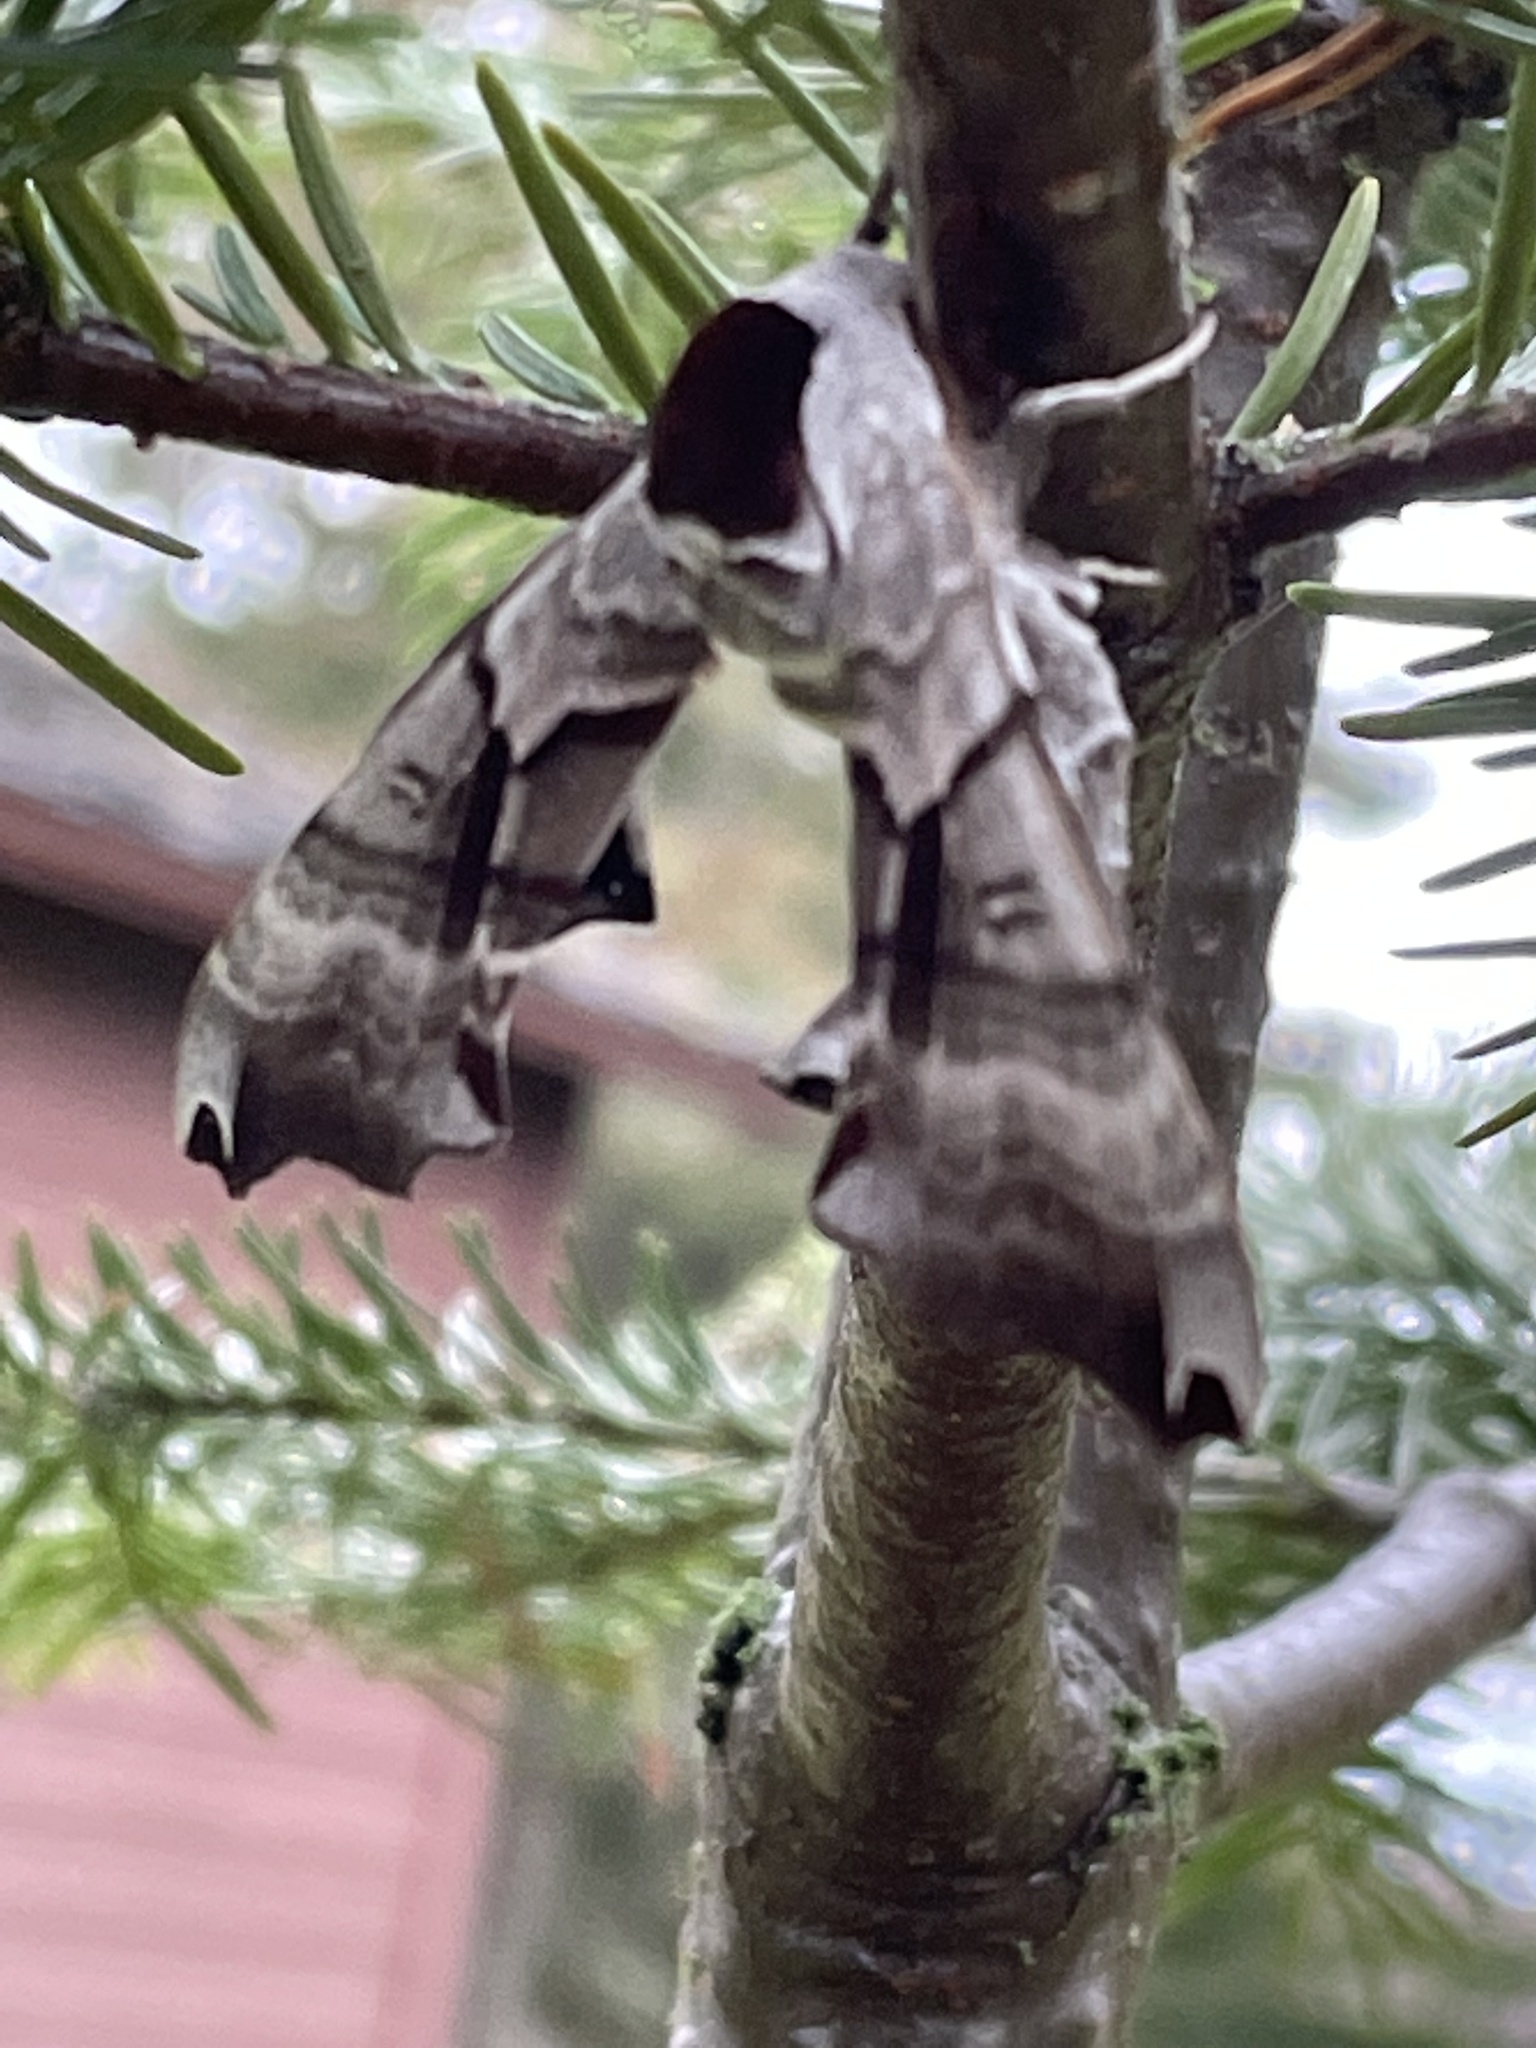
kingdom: Animalia
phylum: Arthropoda
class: Insecta
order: Lepidoptera
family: Sphingidae
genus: Smerinthus
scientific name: Smerinthus jamaicensis
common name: Twin spotted sphinx
